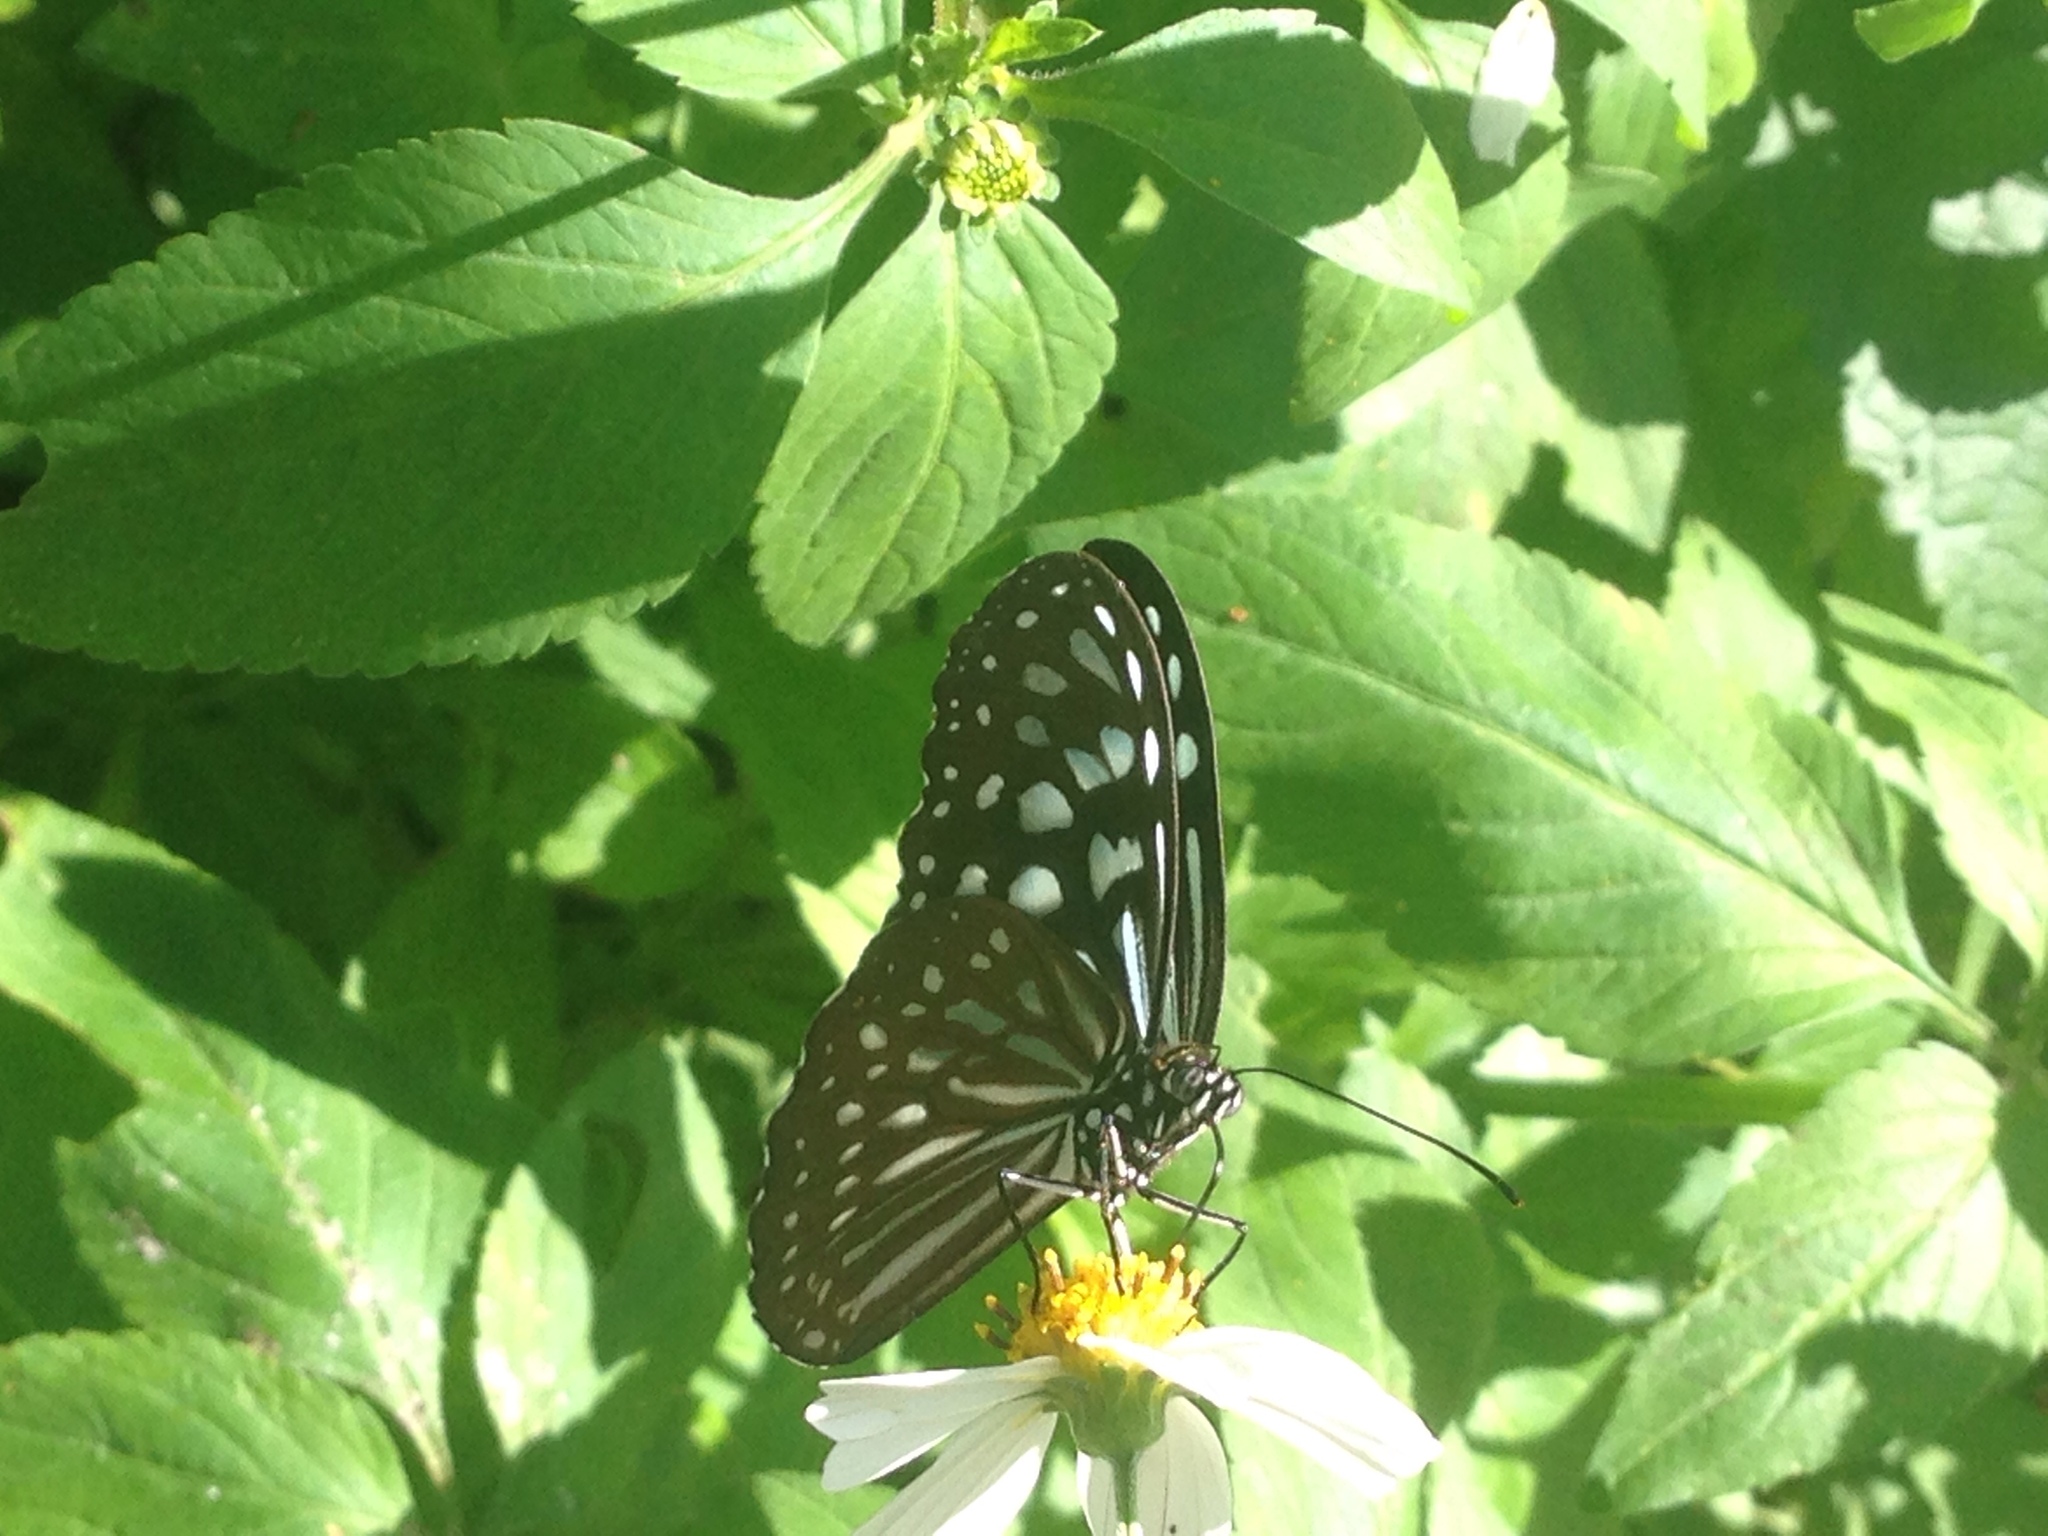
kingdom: Animalia
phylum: Arthropoda
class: Insecta
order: Lepidoptera
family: Nymphalidae
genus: Ideopsis
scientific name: Ideopsis similis
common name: Ceylon blue glassy tiger
